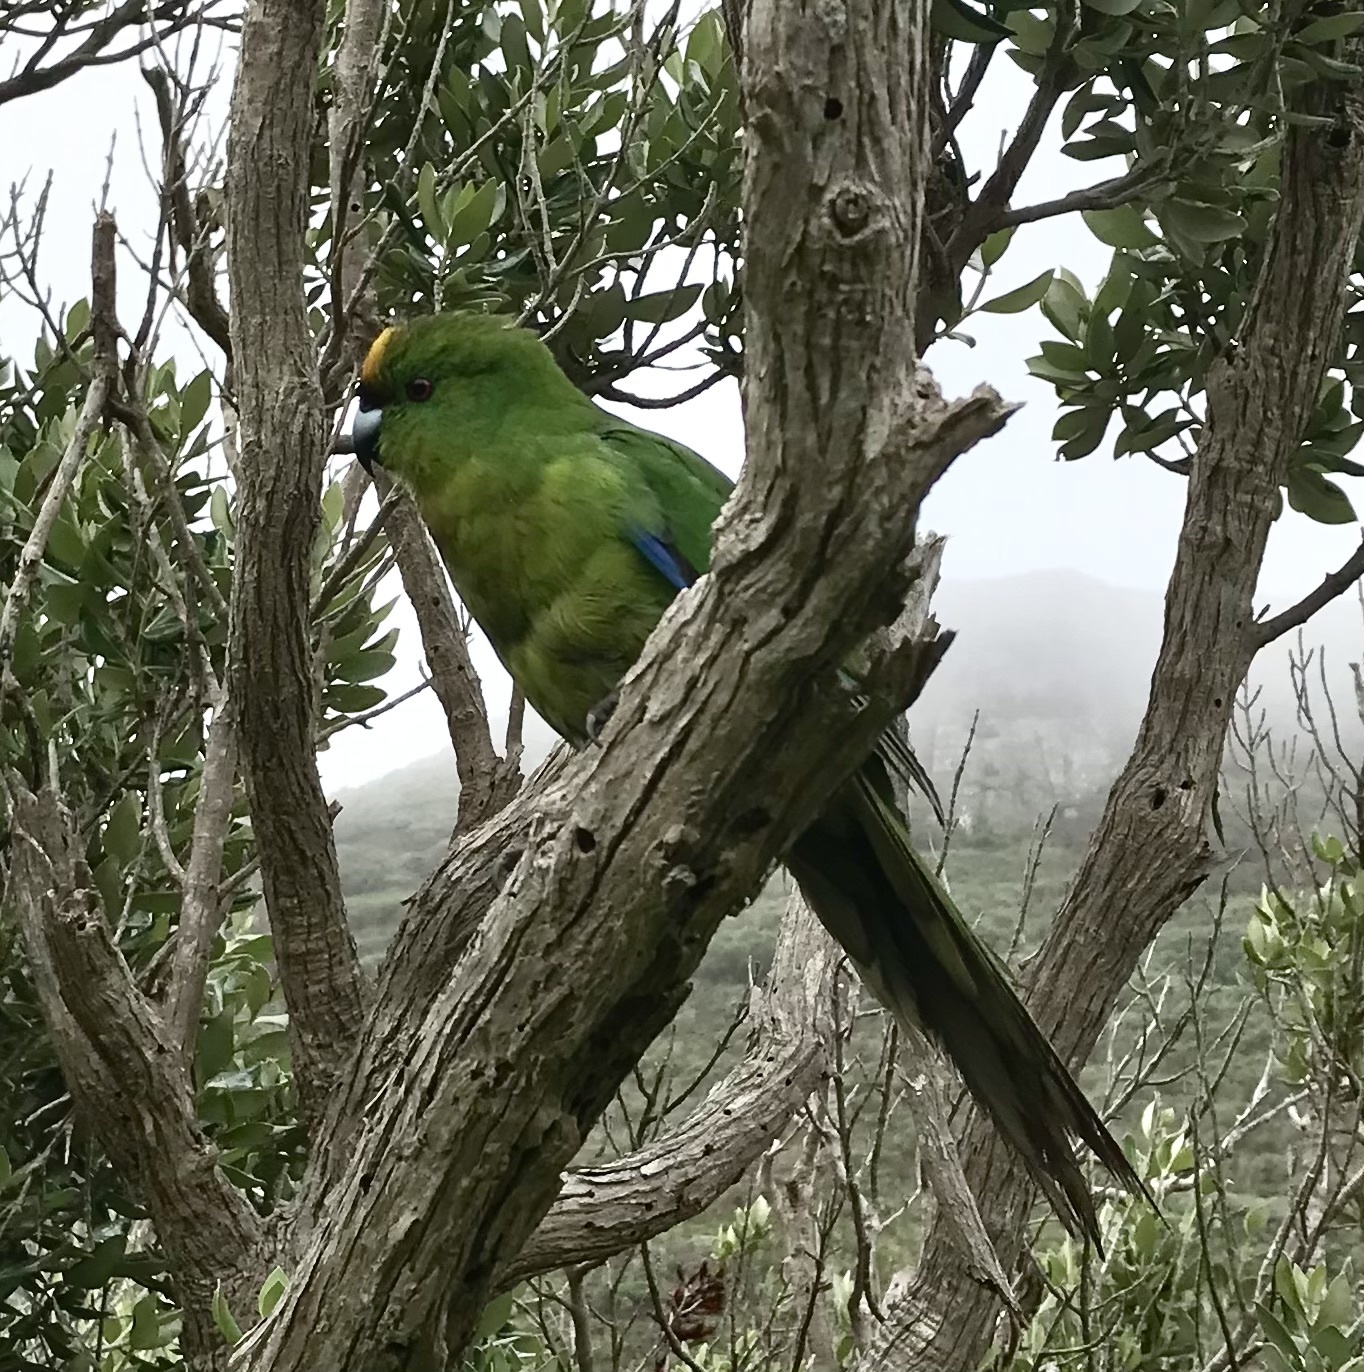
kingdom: Animalia
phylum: Chordata
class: Aves
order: Psittaciformes
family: Psittacidae
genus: Cyanoramphus
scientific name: Cyanoramphus forbesi
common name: Chatham parakeet
